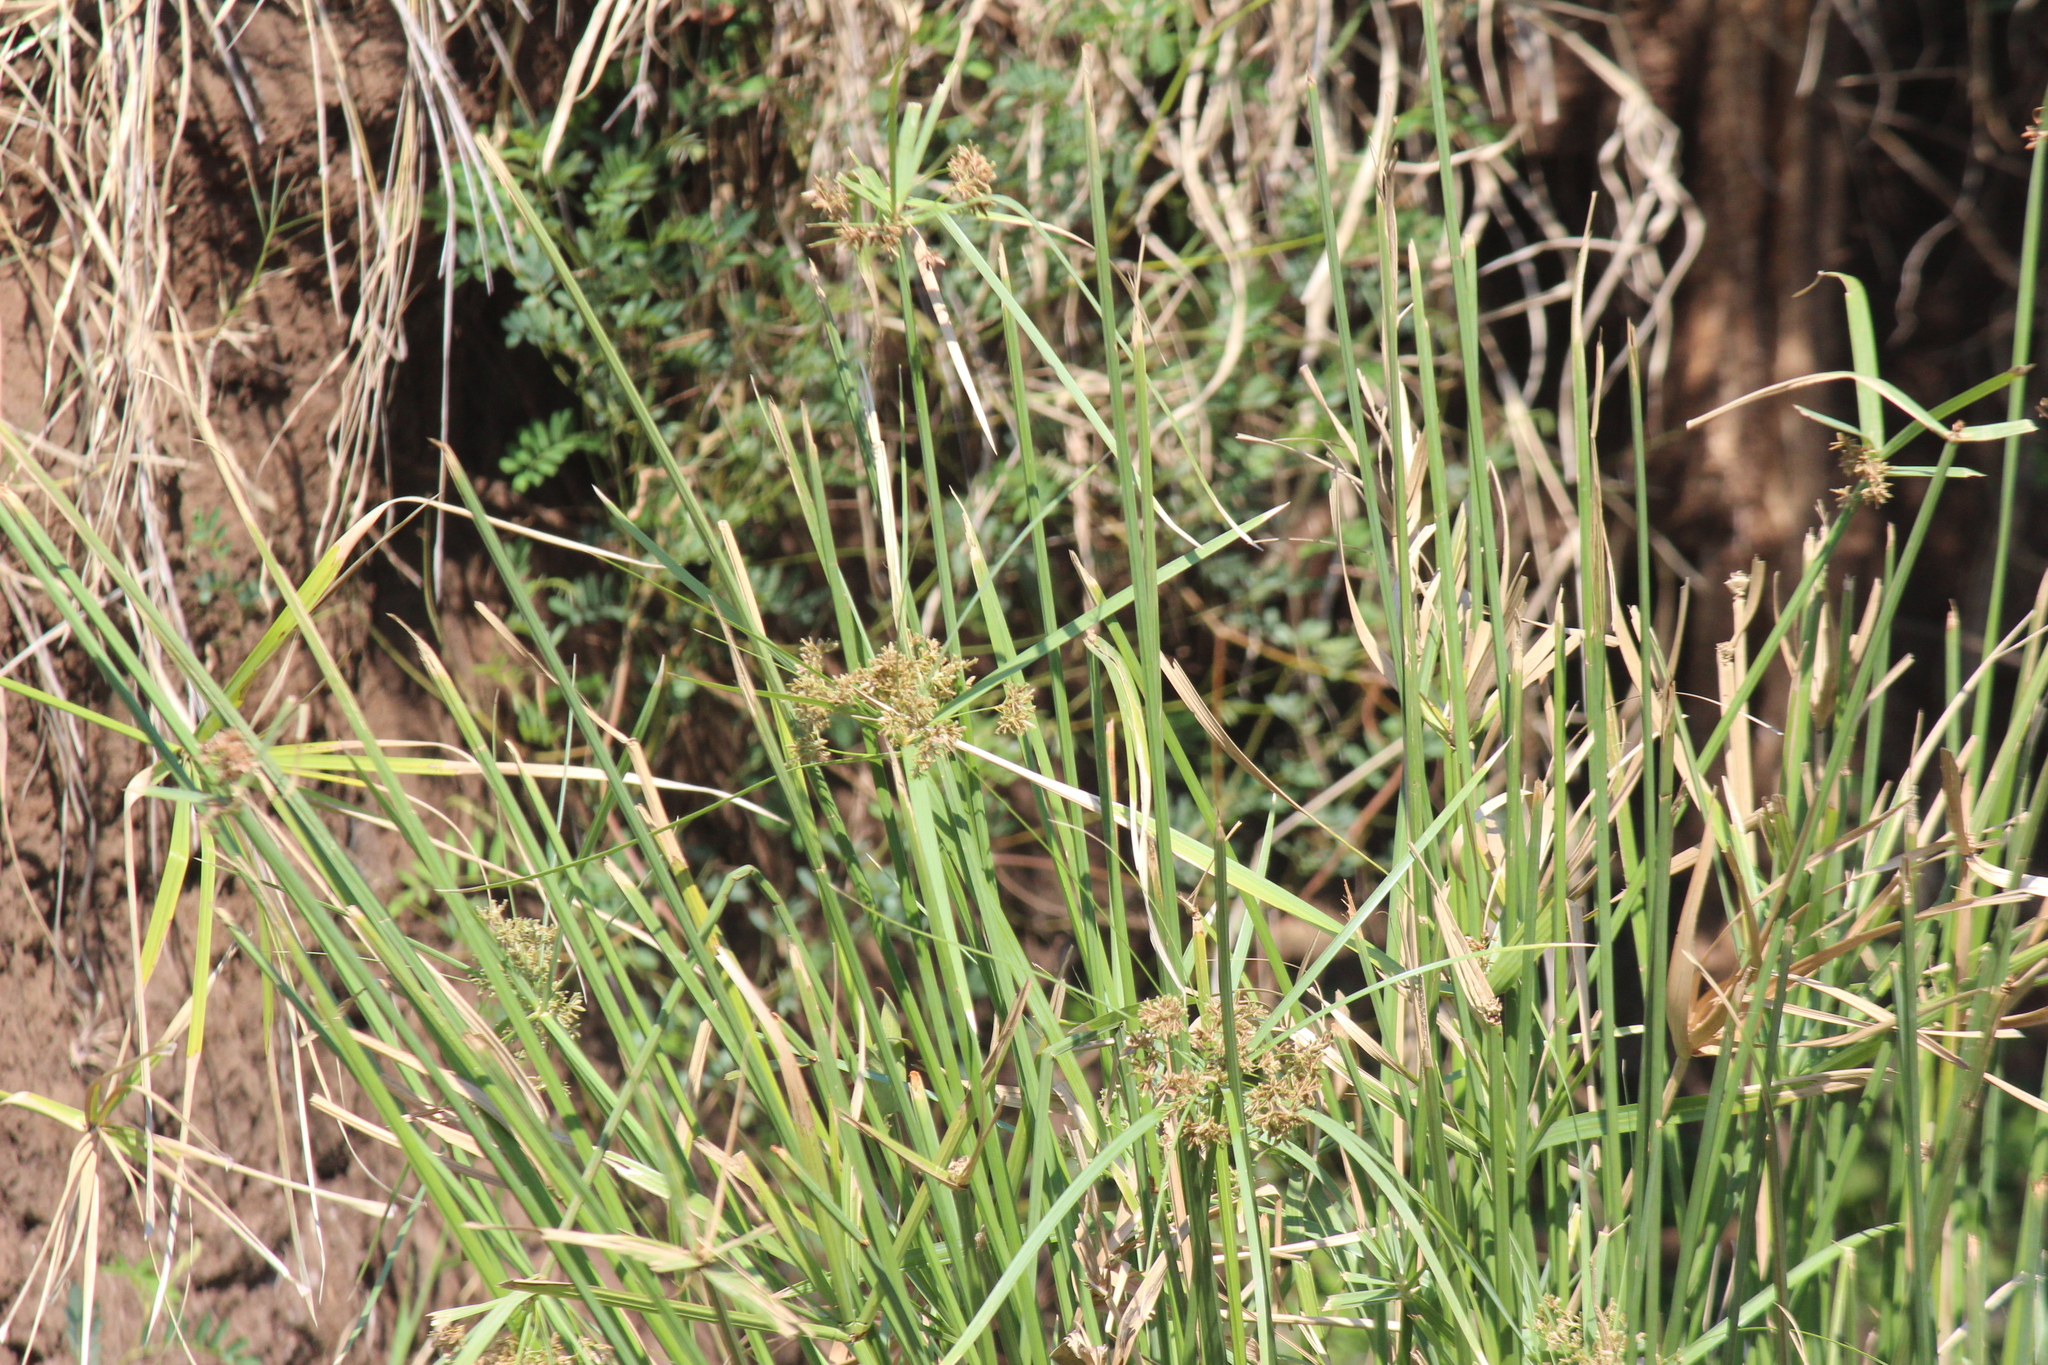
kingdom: Plantae
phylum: Tracheophyta
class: Liliopsida
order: Poales
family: Cyperaceae
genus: Cyperus
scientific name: Cyperus sexangularis
